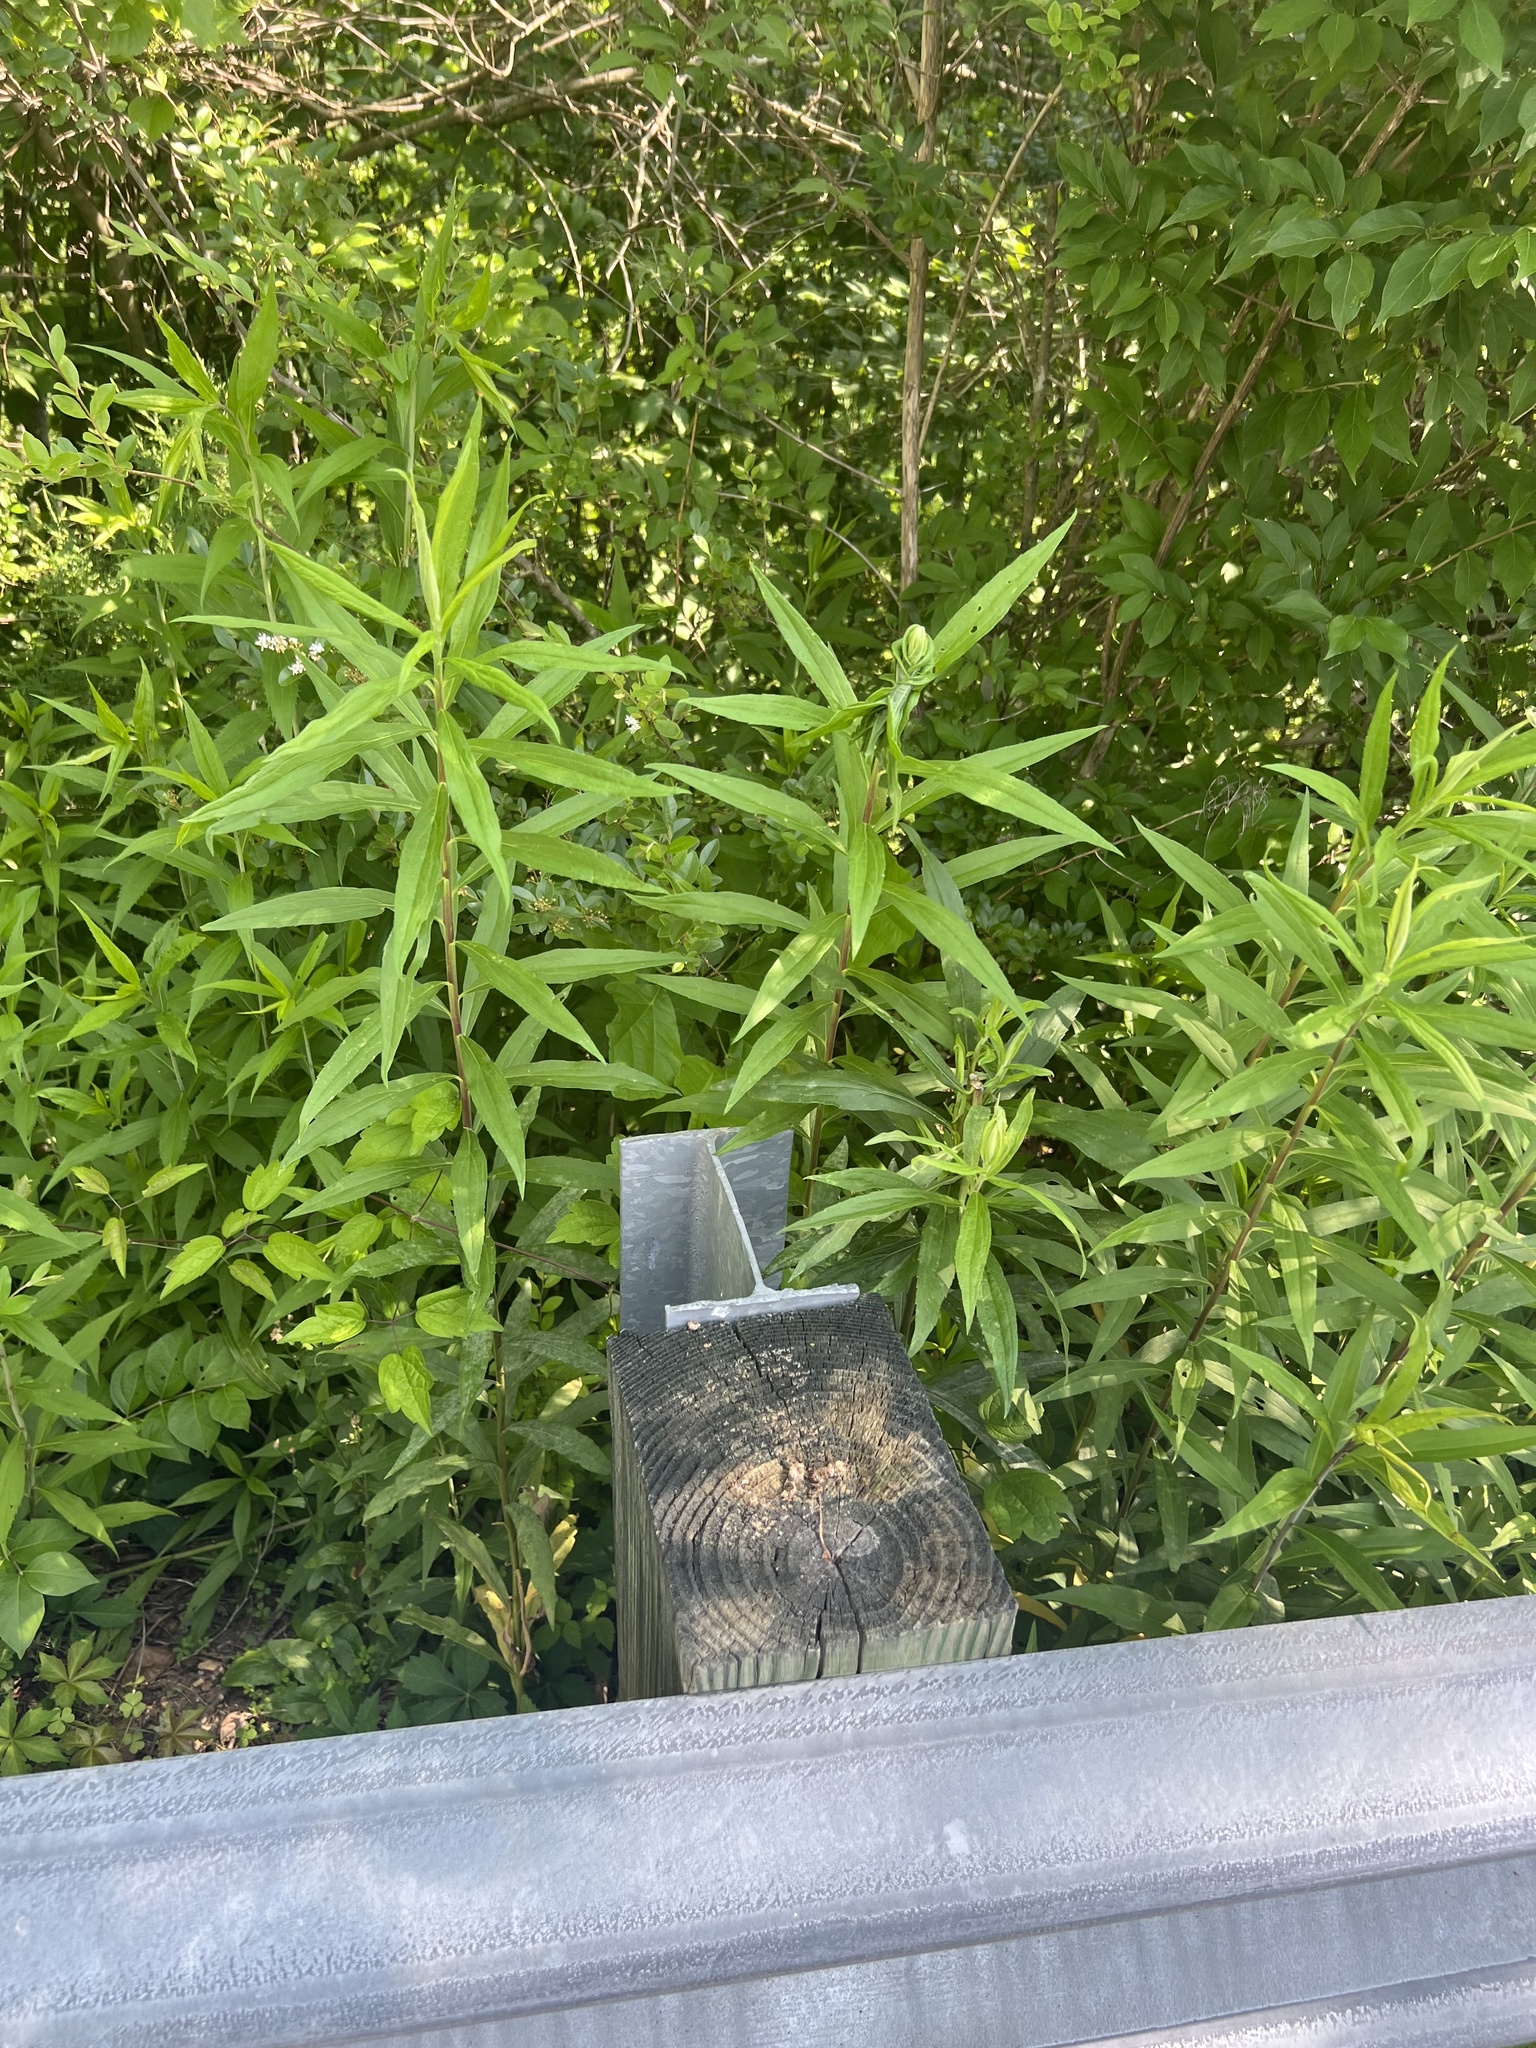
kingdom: Plantae
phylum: Tracheophyta
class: Magnoliopsida
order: Asterales
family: Asteraceae
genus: Solidago
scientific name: Solidago altissima
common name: Late goldenrod
